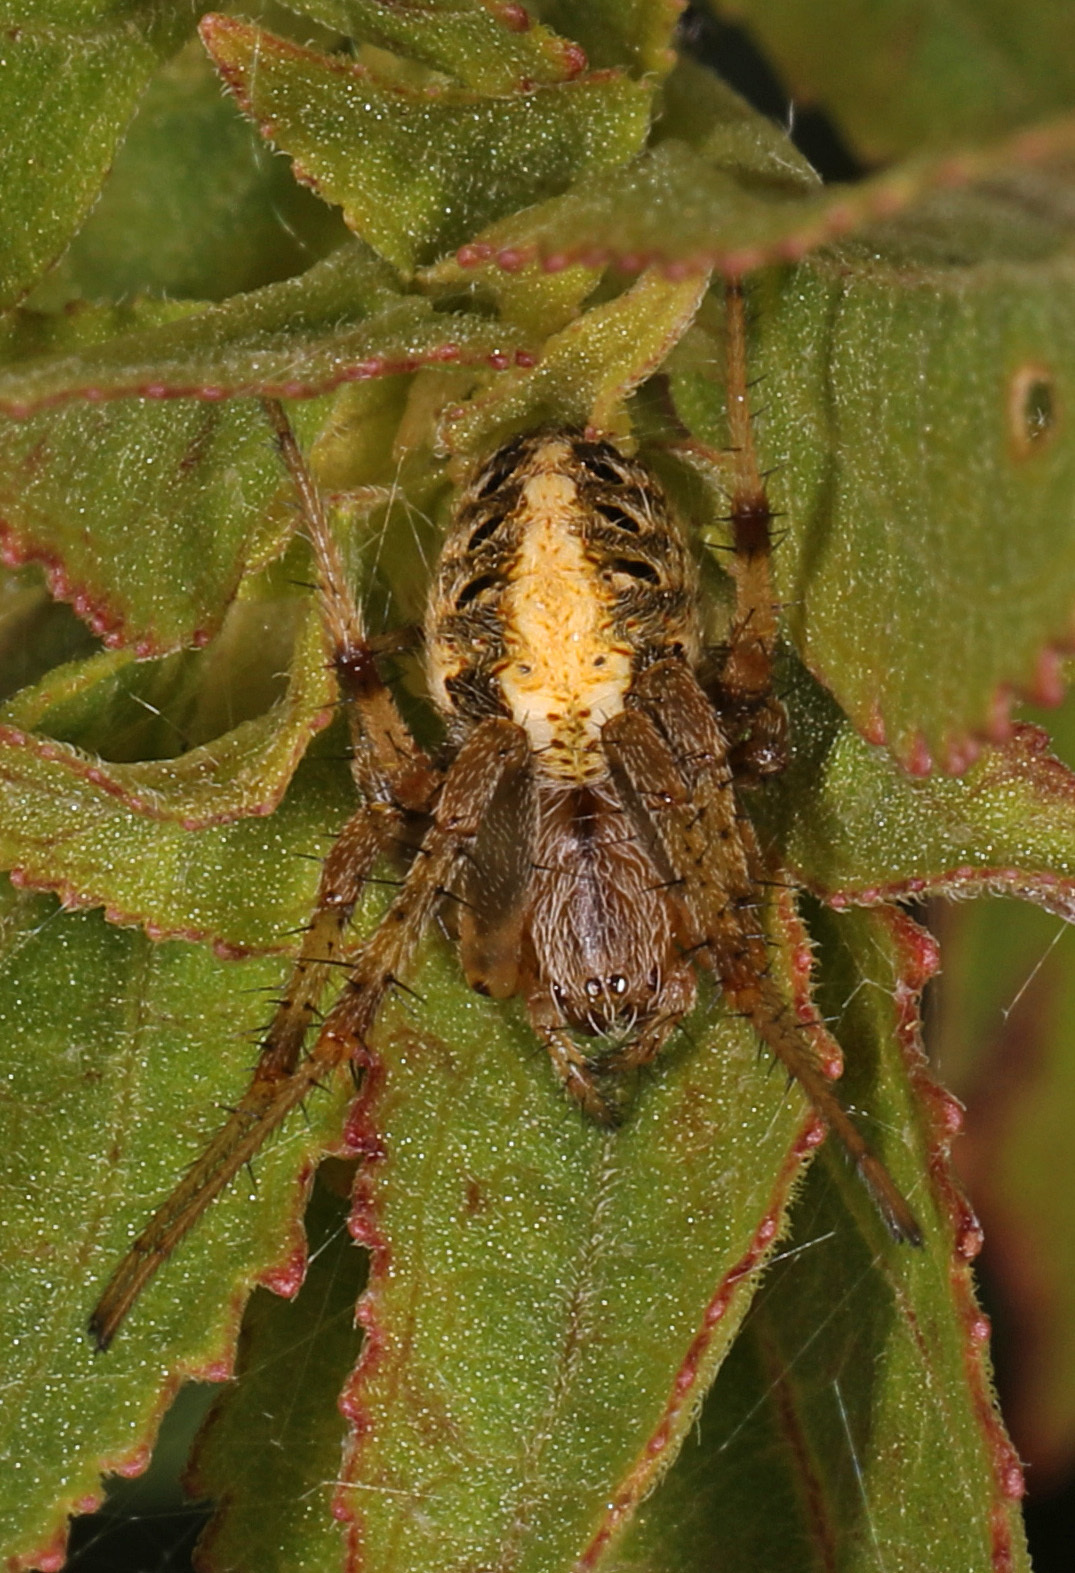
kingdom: Animalia
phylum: Arthropoda
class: Arachnida
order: Araneae
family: Araneidae
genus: Neoscona
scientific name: Neoscona arabesca
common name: Orb weavers
